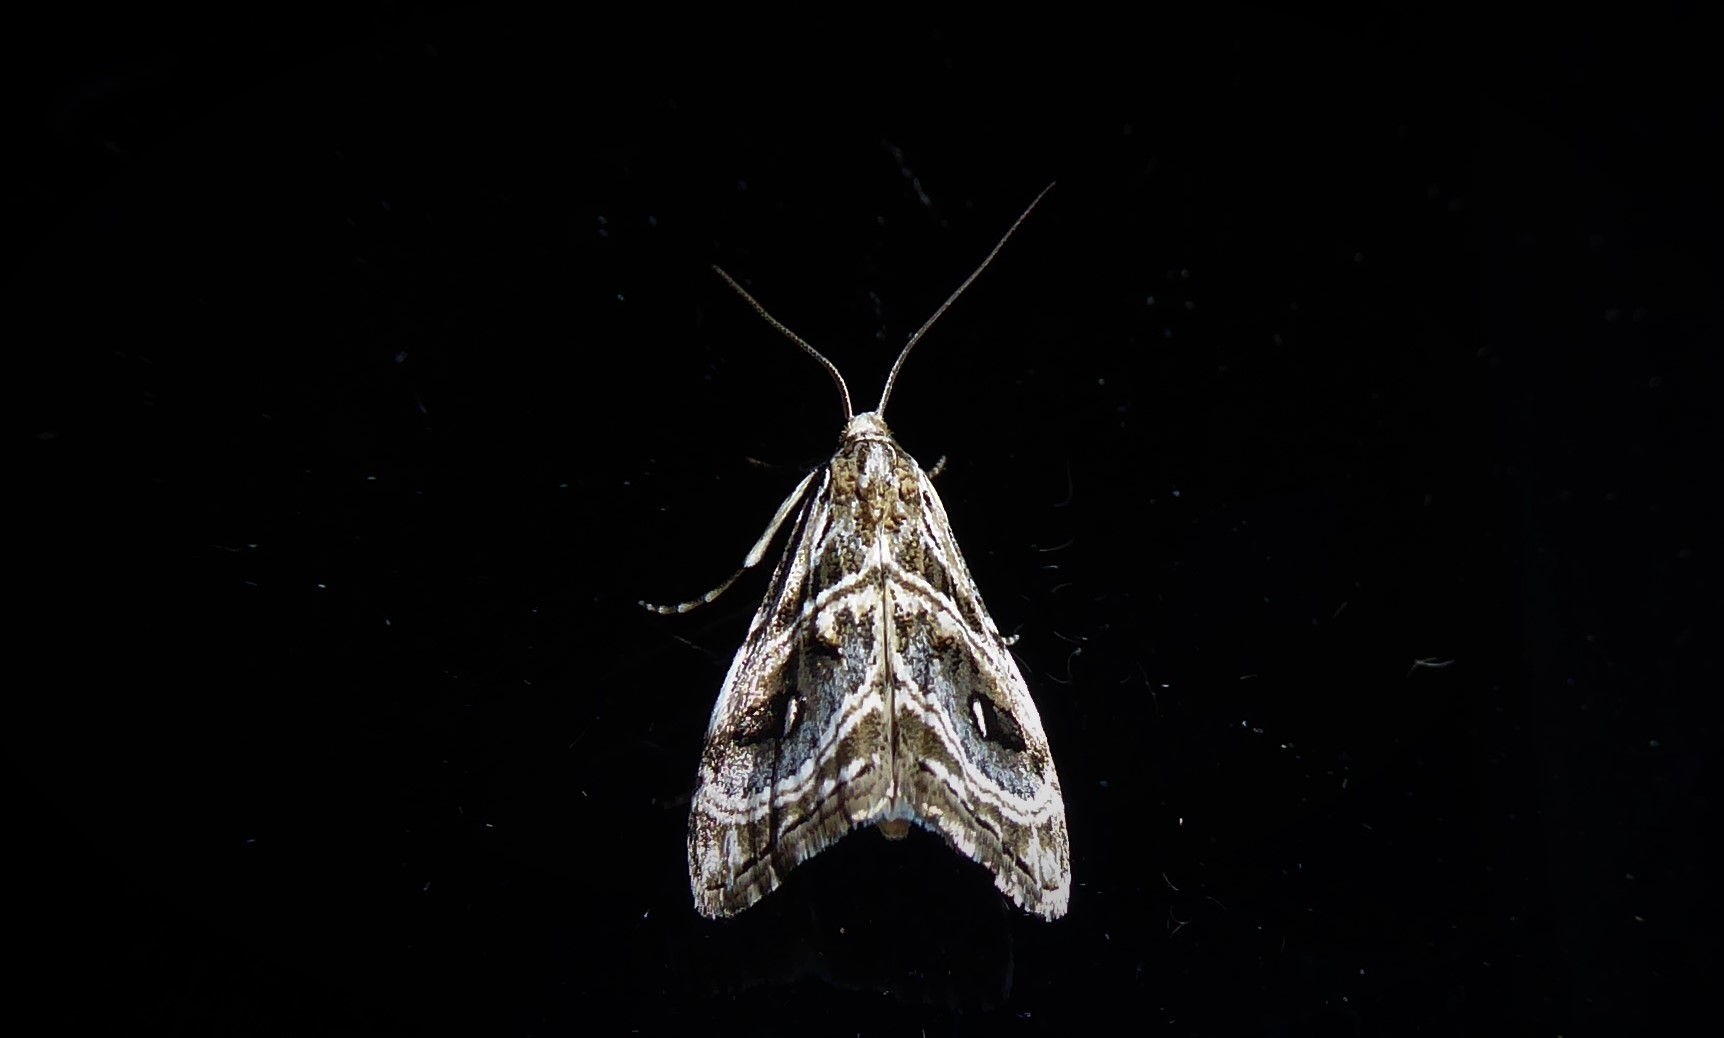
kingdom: Animalia
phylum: Arthropoda
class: Insecta
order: Lepidoptera
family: Crambidae
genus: Gadira
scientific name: Gadira acerella
